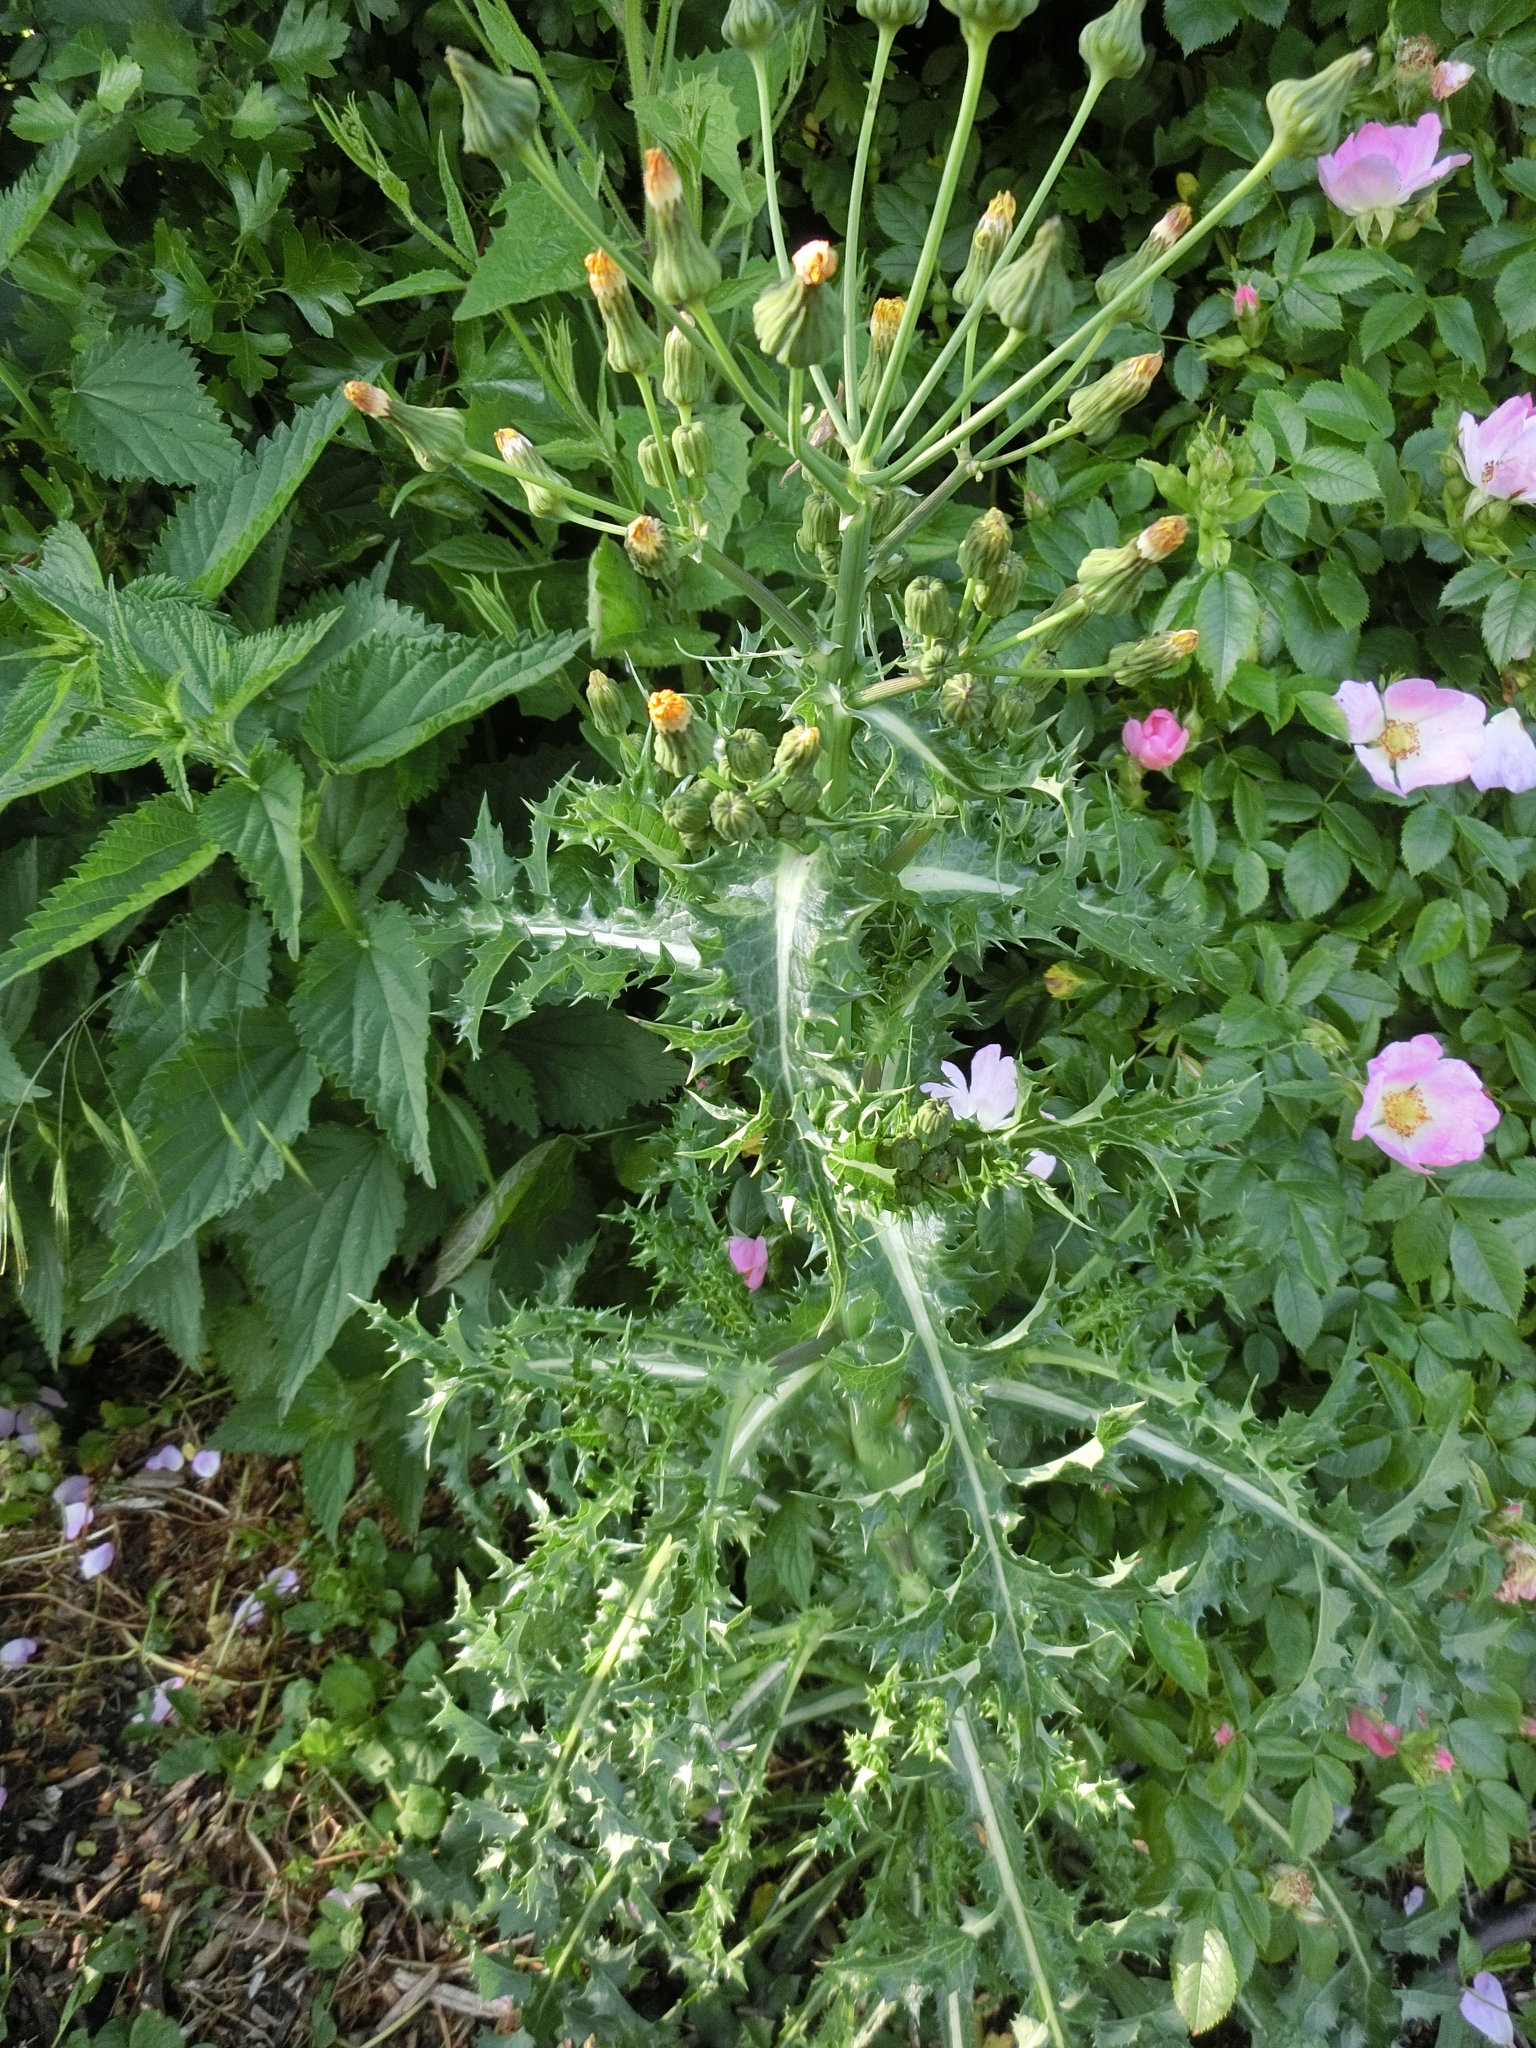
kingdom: Plantae
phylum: Tracheophyta
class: Magnoliopsida
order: Asterales
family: Asteraceae
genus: Sonchus
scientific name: Sonchus asper
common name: Prickly sow-thistle
